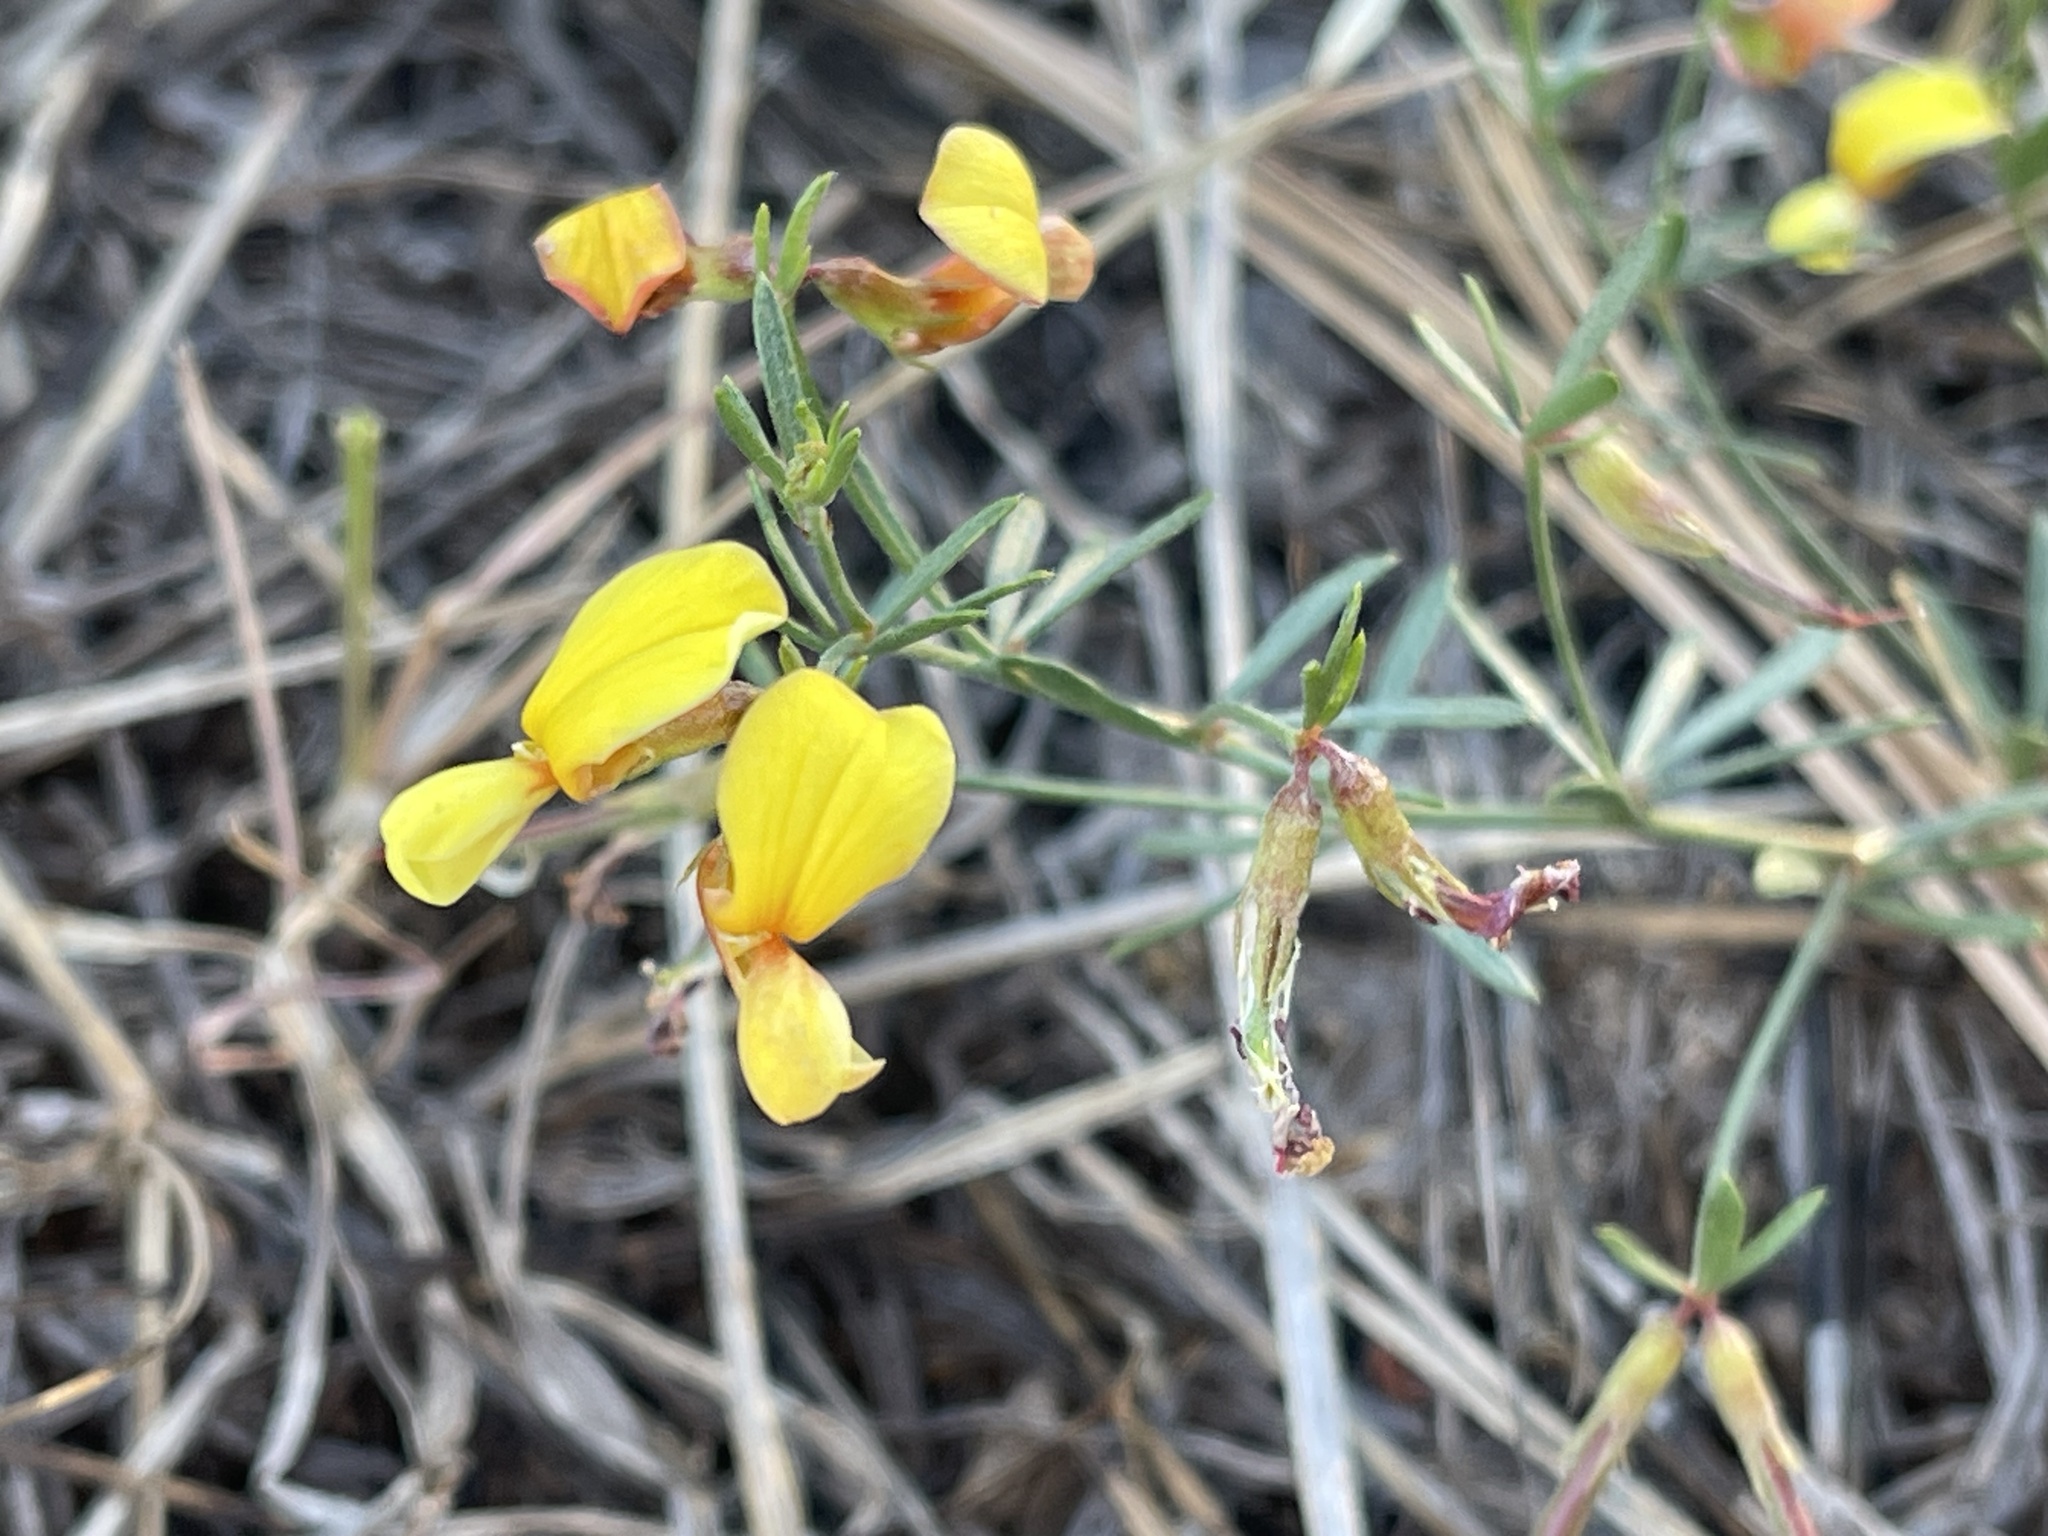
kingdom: Plantae
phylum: Tracheophyta
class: Magnoliopsida
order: Fabales
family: Fabaceae
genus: Acmispon
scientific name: Acmispon wrightii
